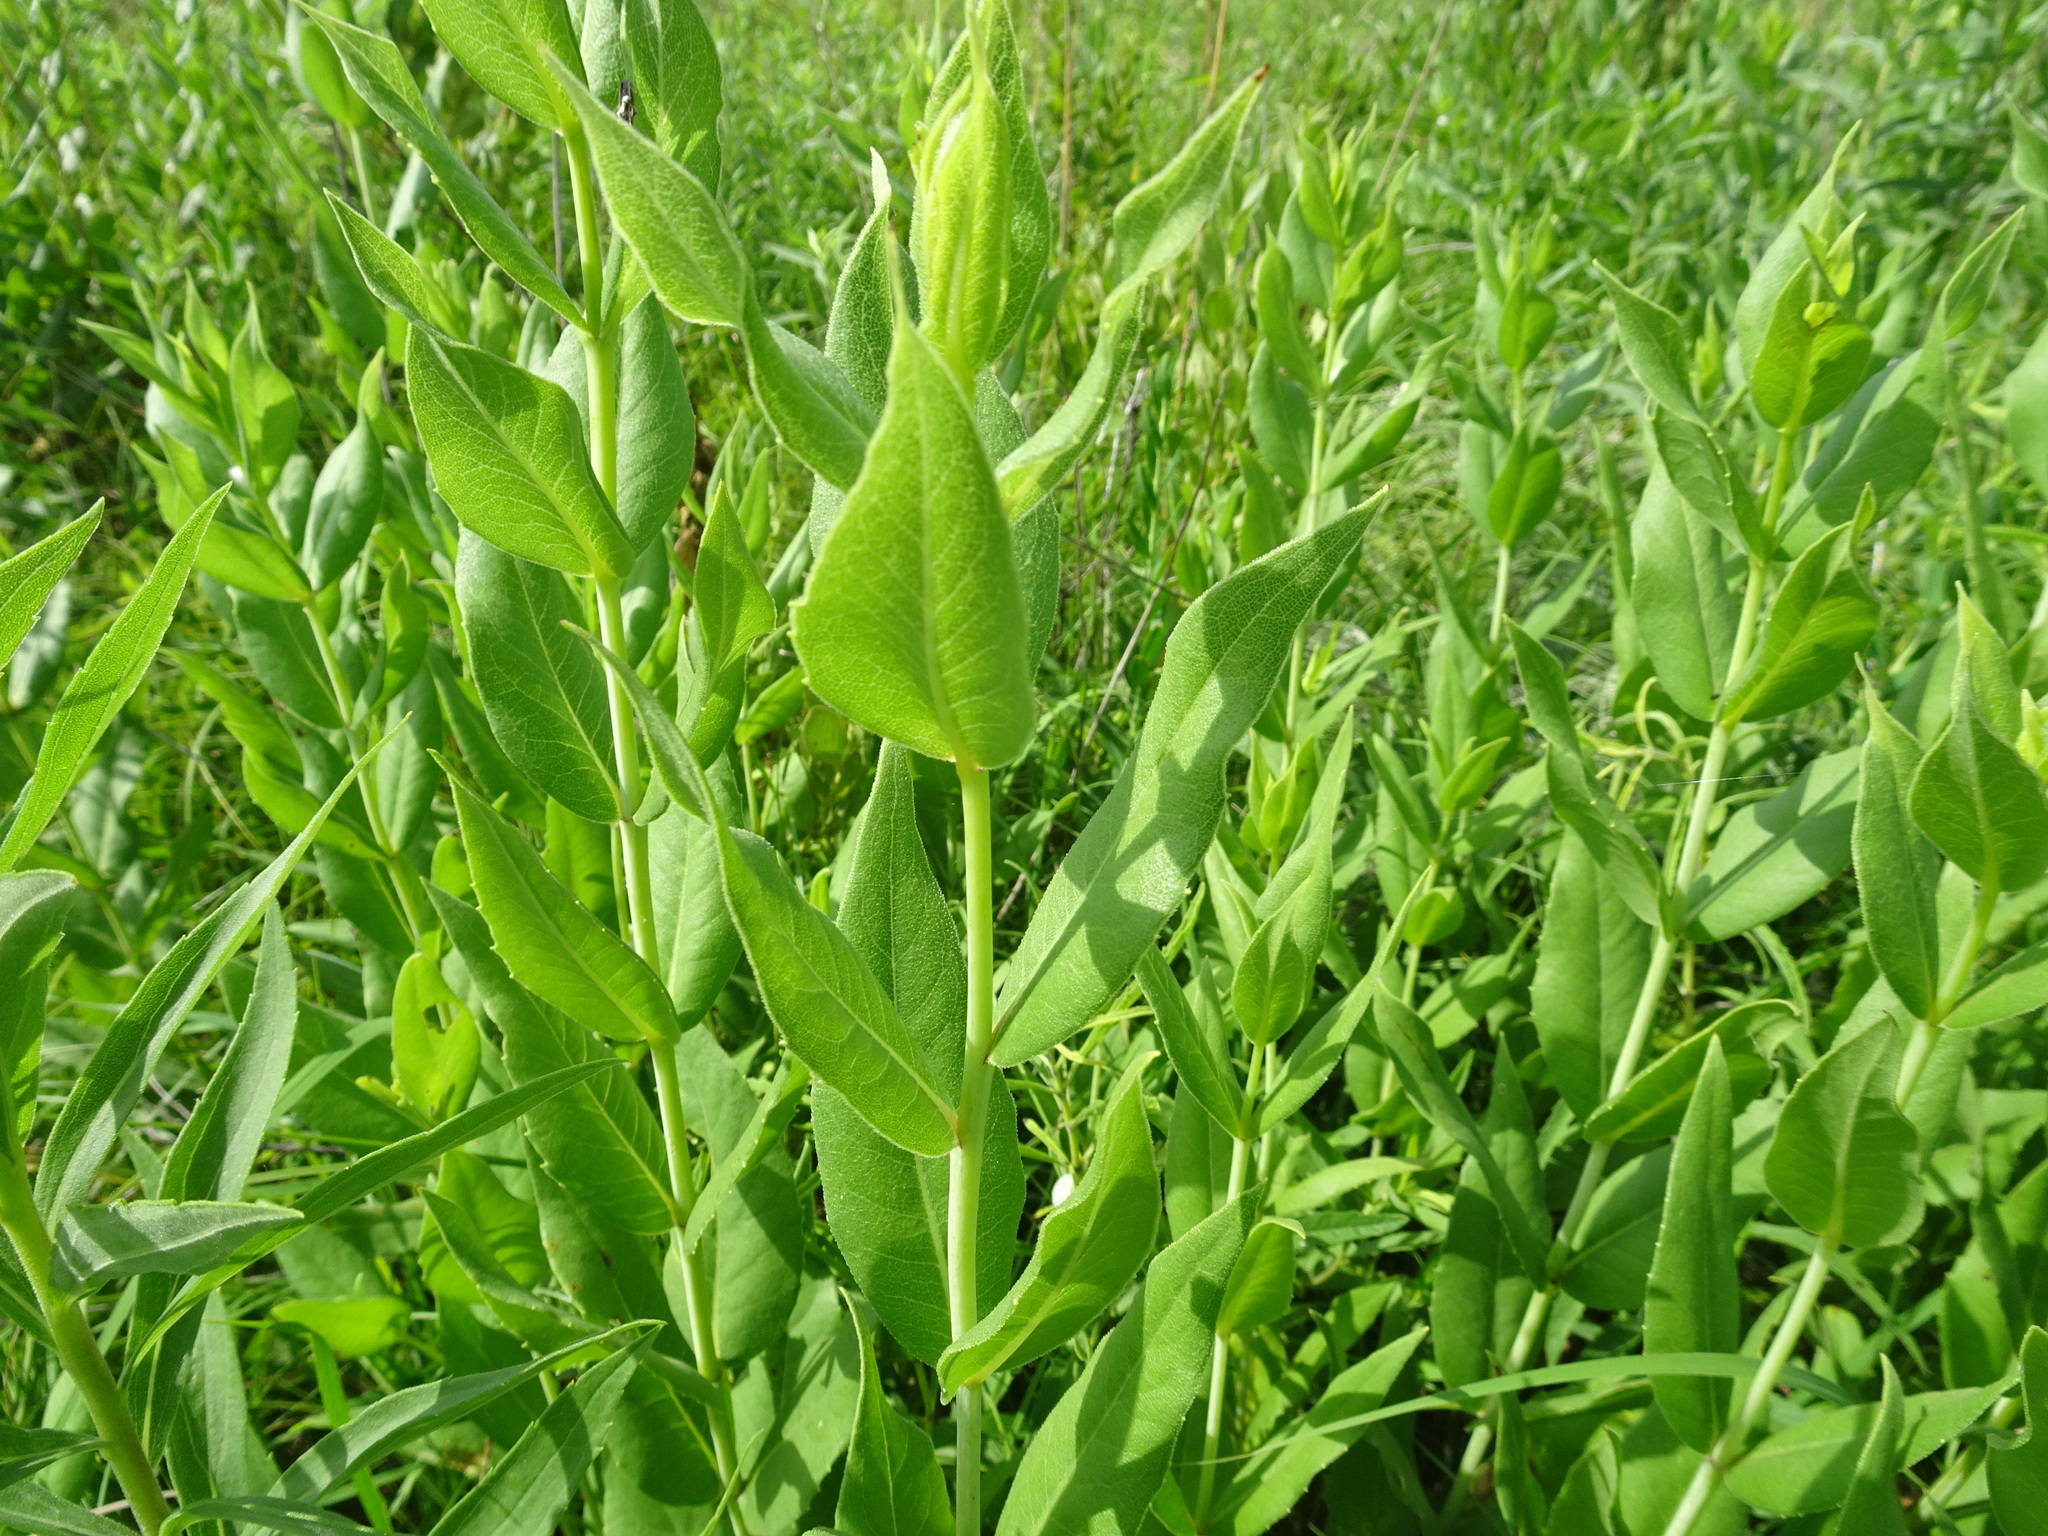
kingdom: Plantae
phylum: Tracheophyta
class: Magnoliopsida
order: Asterales
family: Asteraceae
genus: Silphium
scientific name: Silphium integrifolium
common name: Whole-leaf rosinweed
